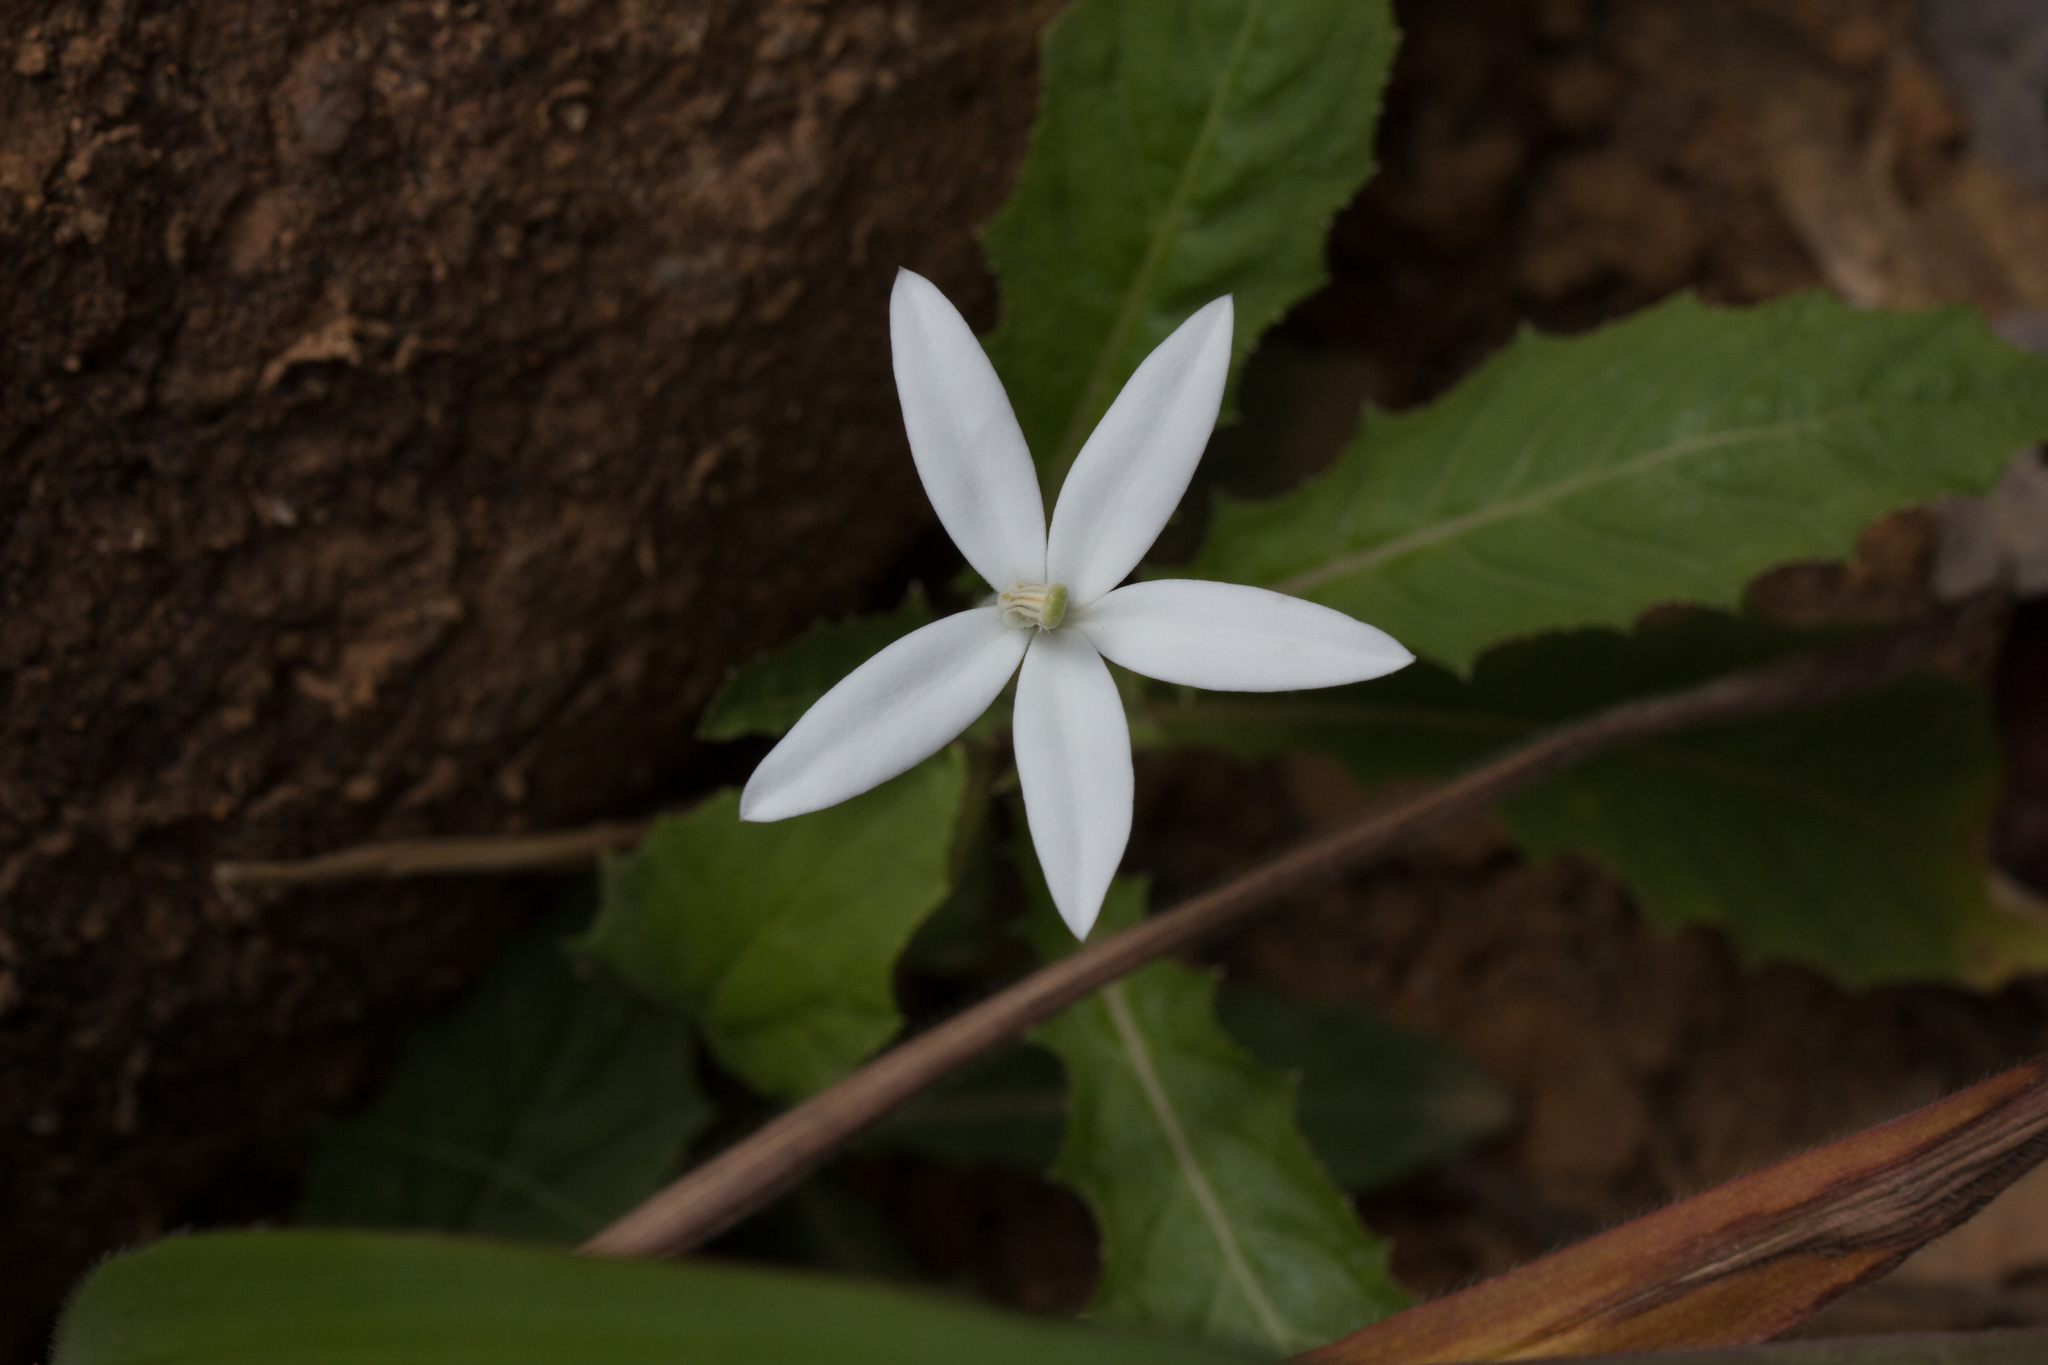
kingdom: Plantae
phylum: Tracheophyta
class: Magnoliopsida
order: Asterales
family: Campanulaceae
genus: Hippobroma
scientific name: Hippobroma longiflora
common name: Madamfate
